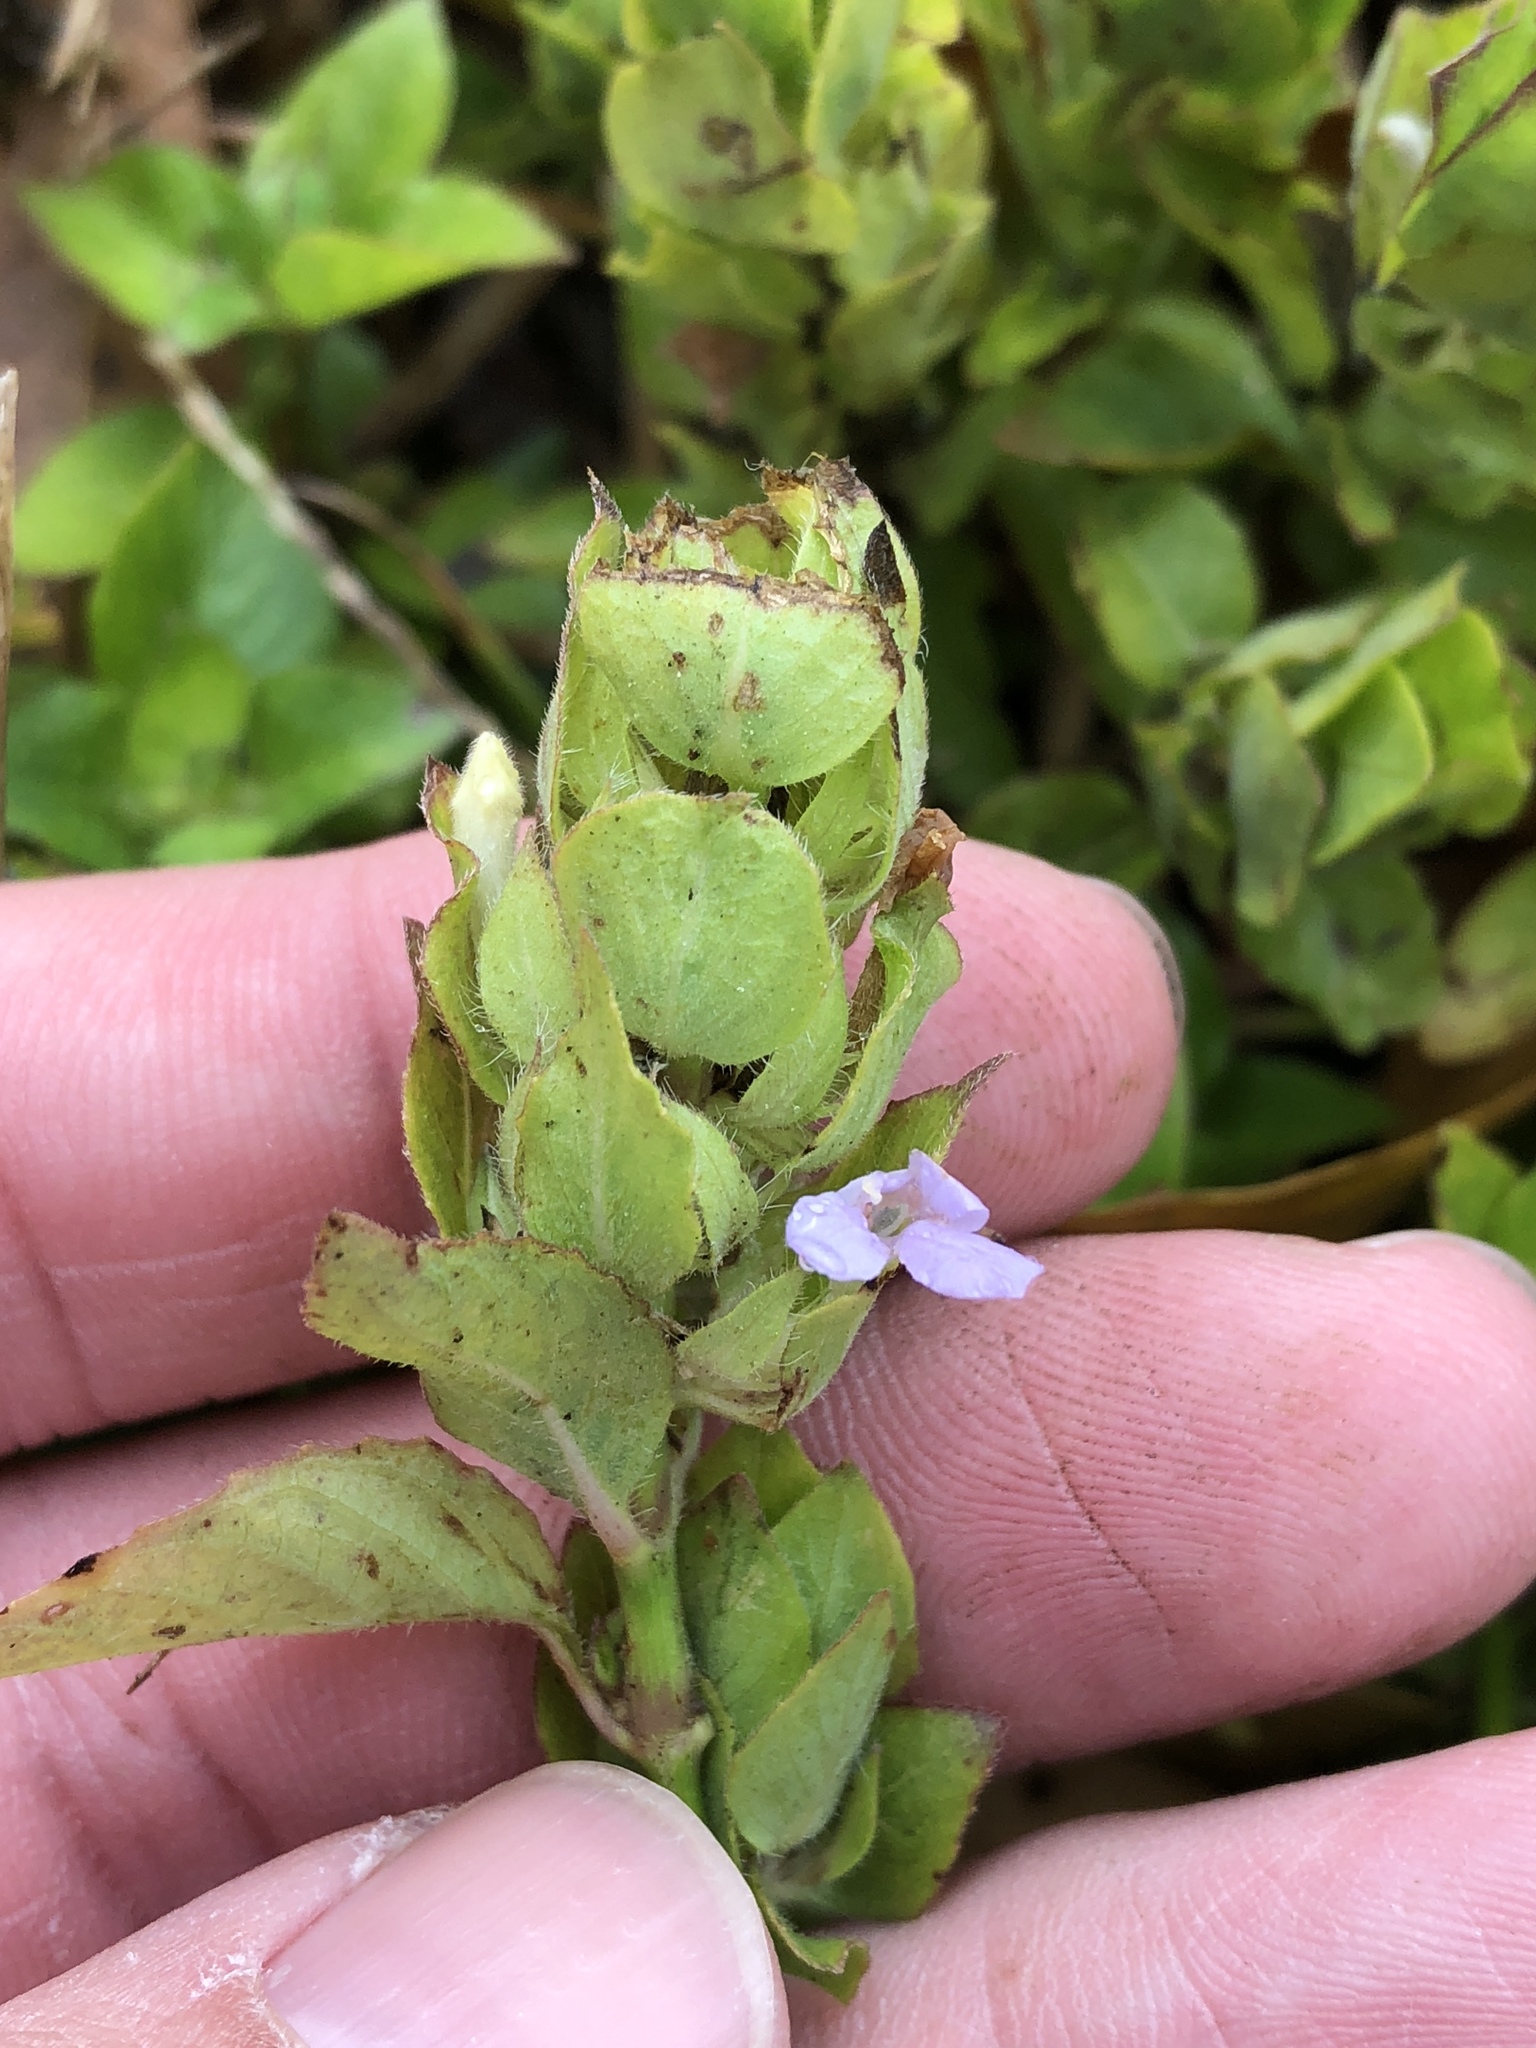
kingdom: Plantae
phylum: Tracheophyta
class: Magnoliopsida
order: Lamiales
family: Acanthaceae
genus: Ruellia
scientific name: Ruellia blechum
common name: Browne's blechum
